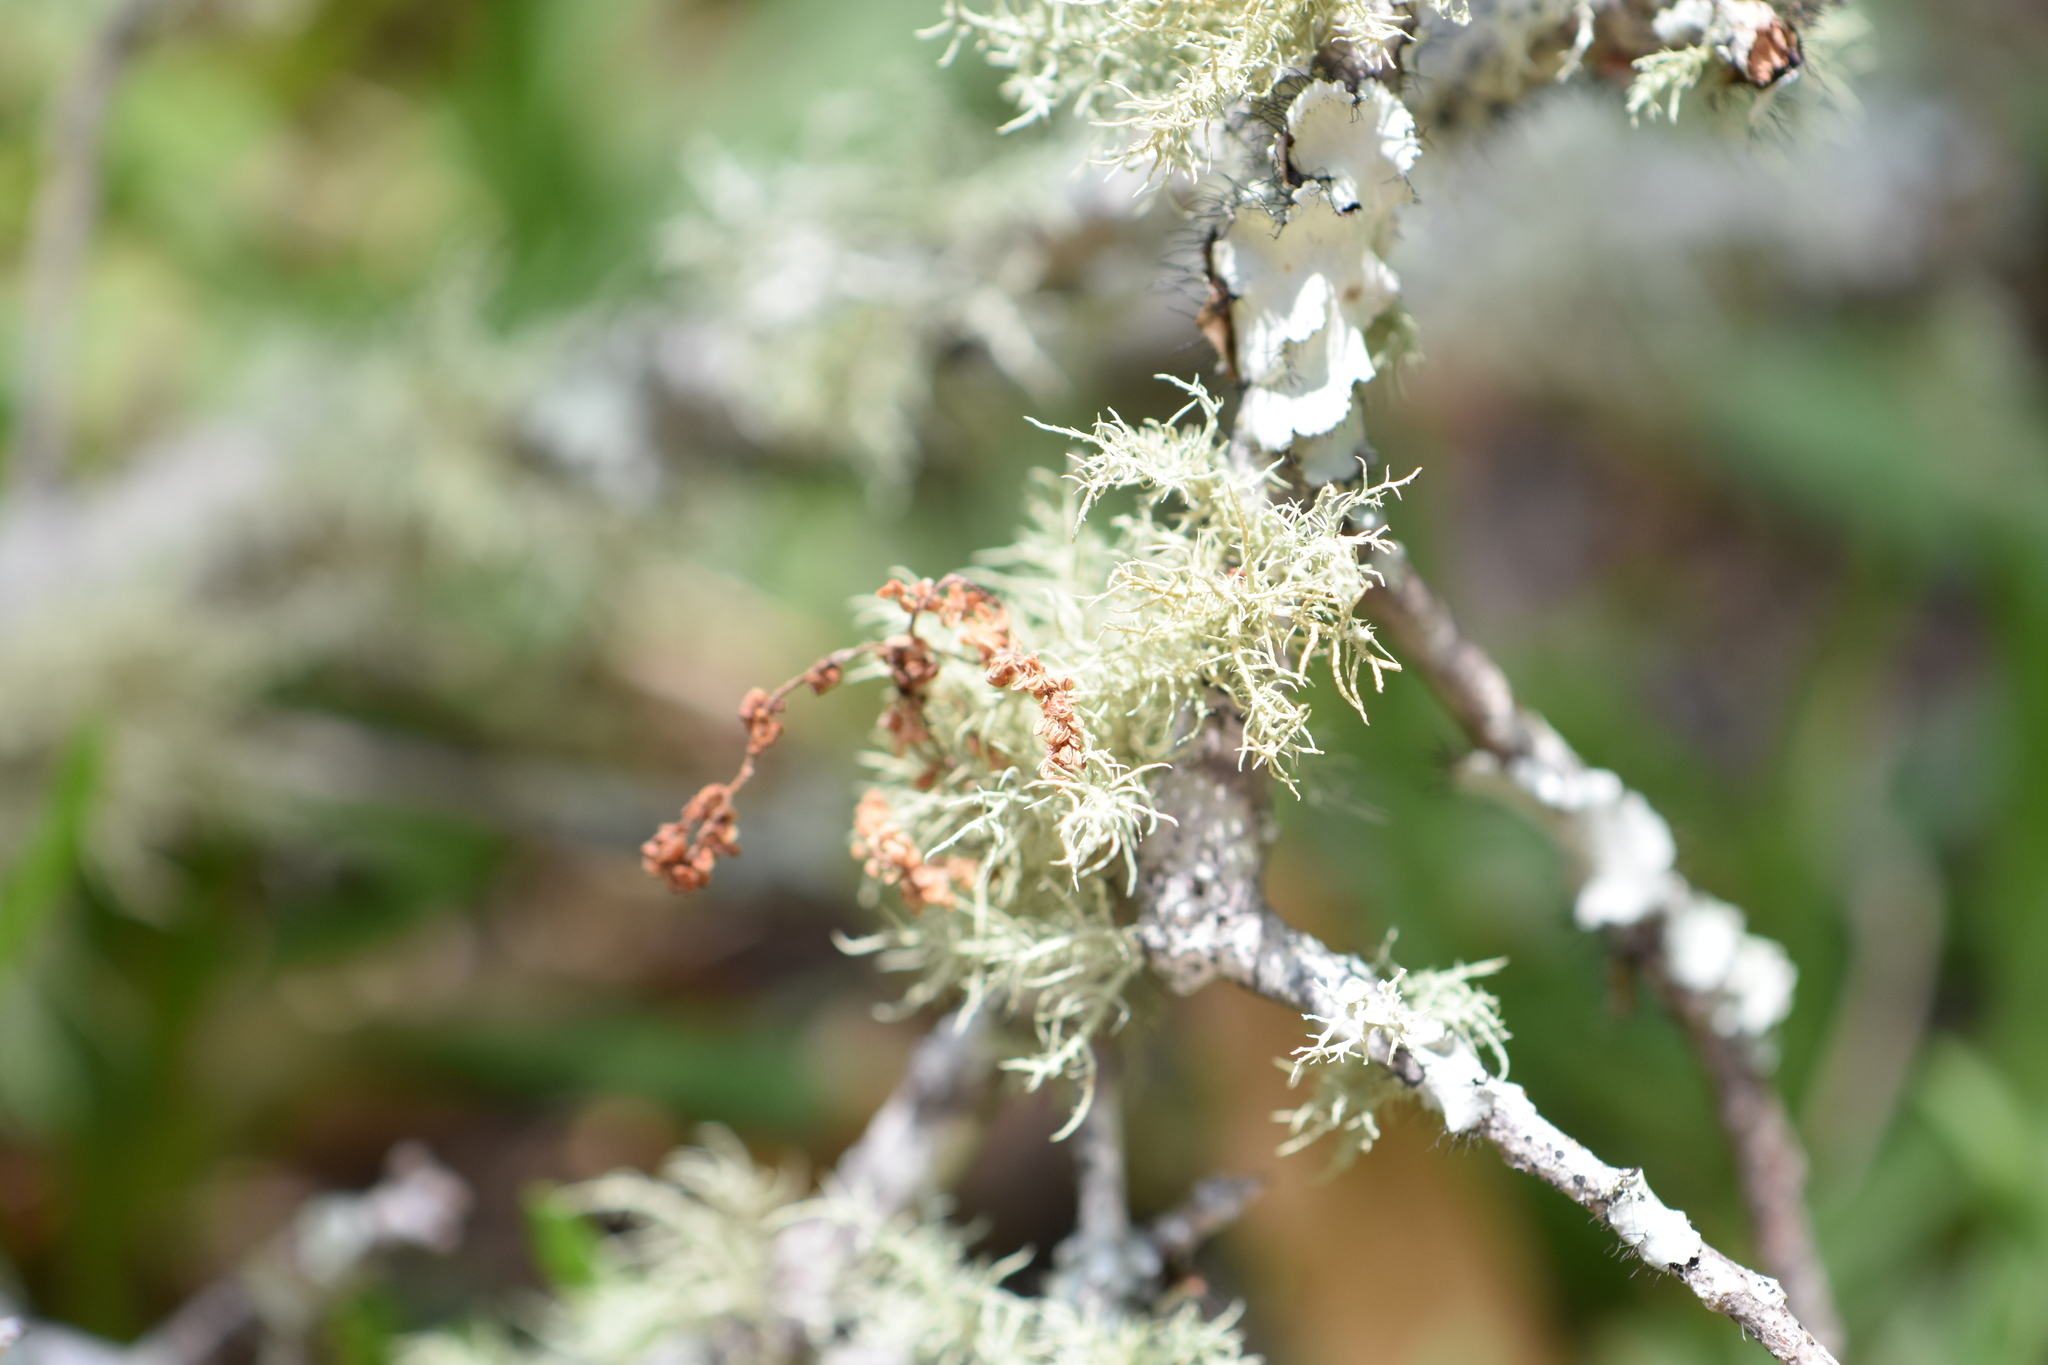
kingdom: Fungi
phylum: Ascomycota
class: Lecanoromycetes
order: Lecanorales
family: Parmeliaceae
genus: Usnea
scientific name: Usnea strigosa
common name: Bushy beard lichen
